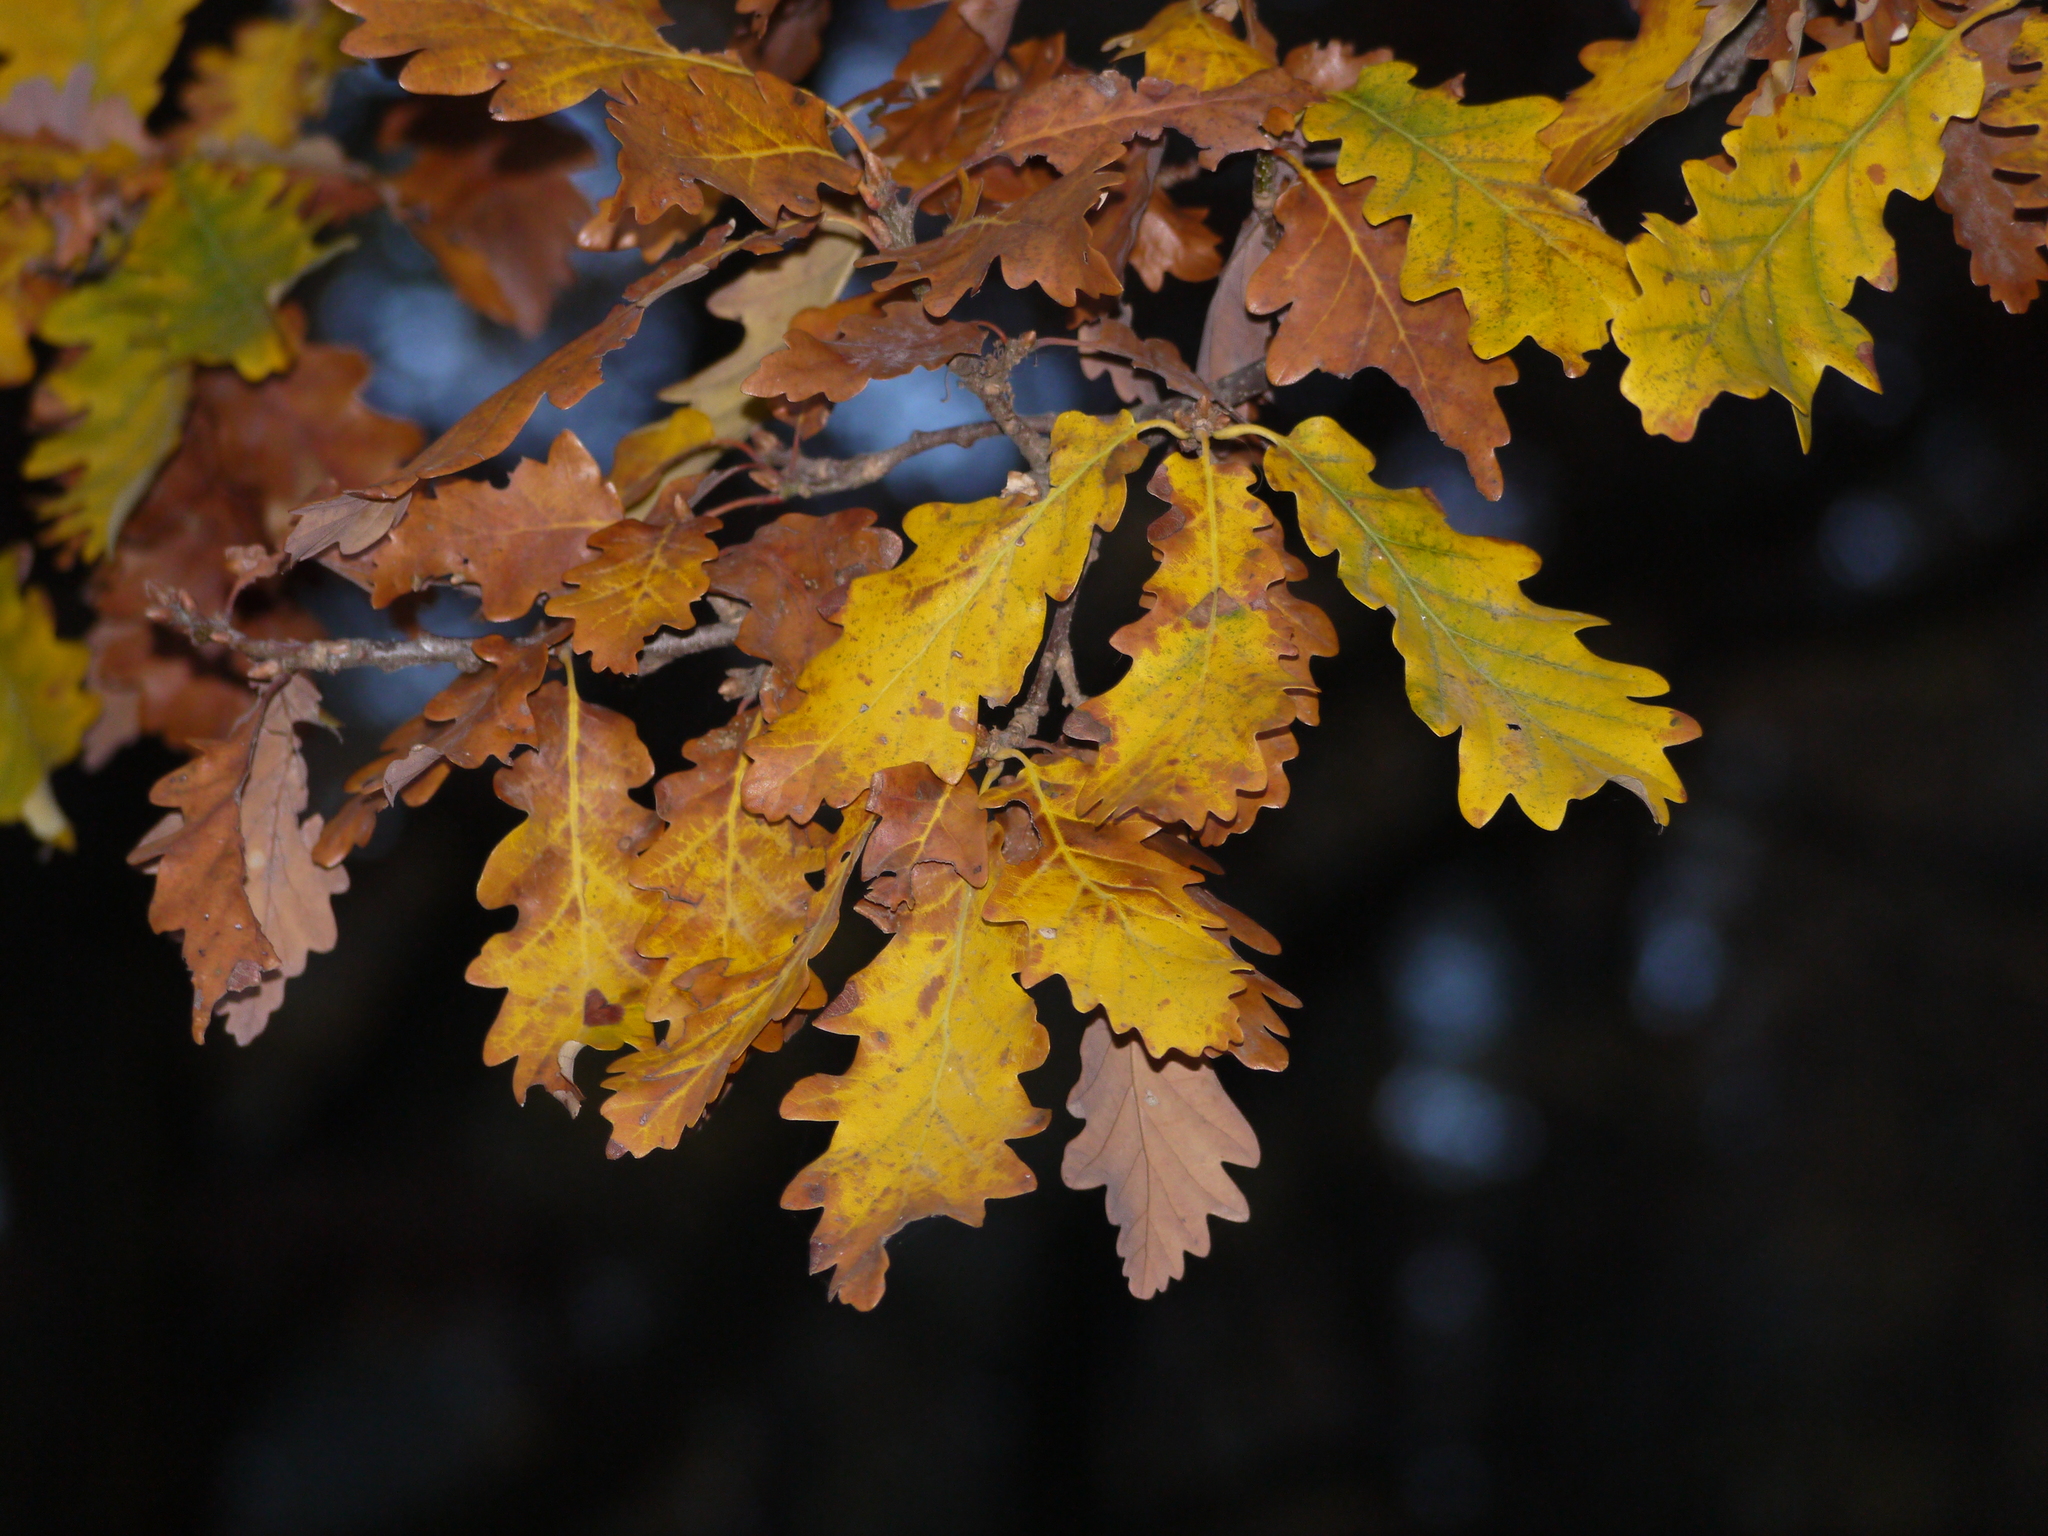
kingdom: Plantae
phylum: Tracheophyta
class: Magnoliopsida
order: Fagales
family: Fagaceae
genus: Quercus
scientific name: Quercus rosacea
